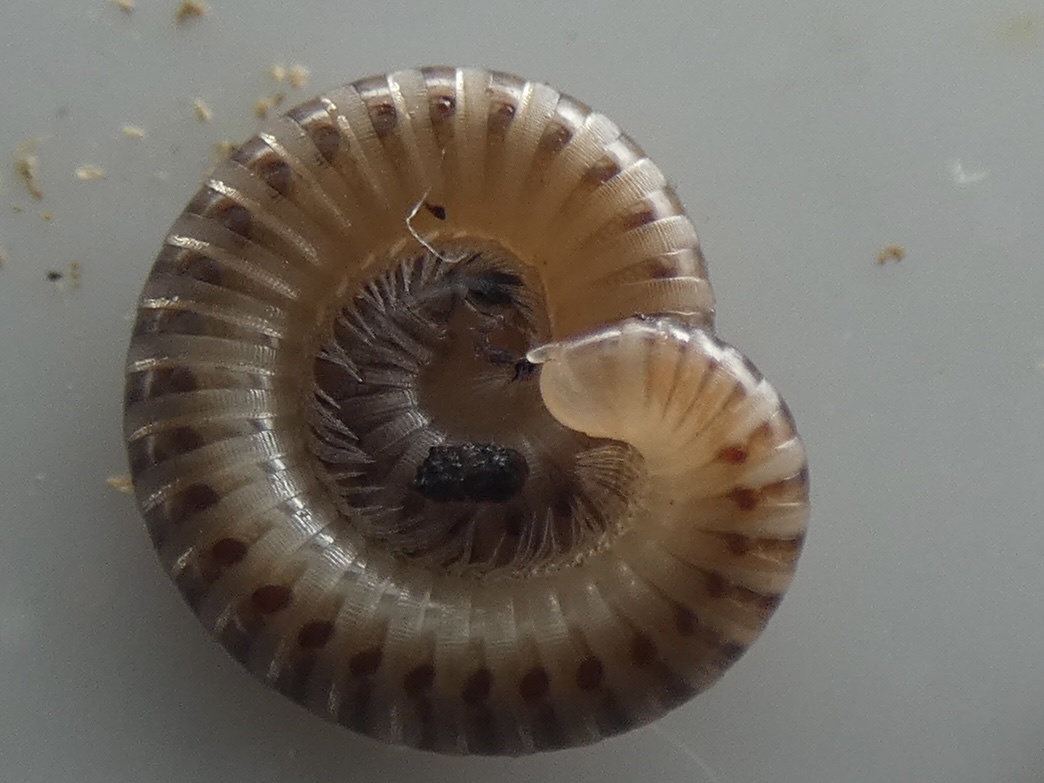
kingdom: Animalia
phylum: Arthropoda
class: Diplopoda
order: Julida
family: Julidae
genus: Cylindroiulus
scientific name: Cylindroiulus punctatus
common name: Blunt-tailed millipede
